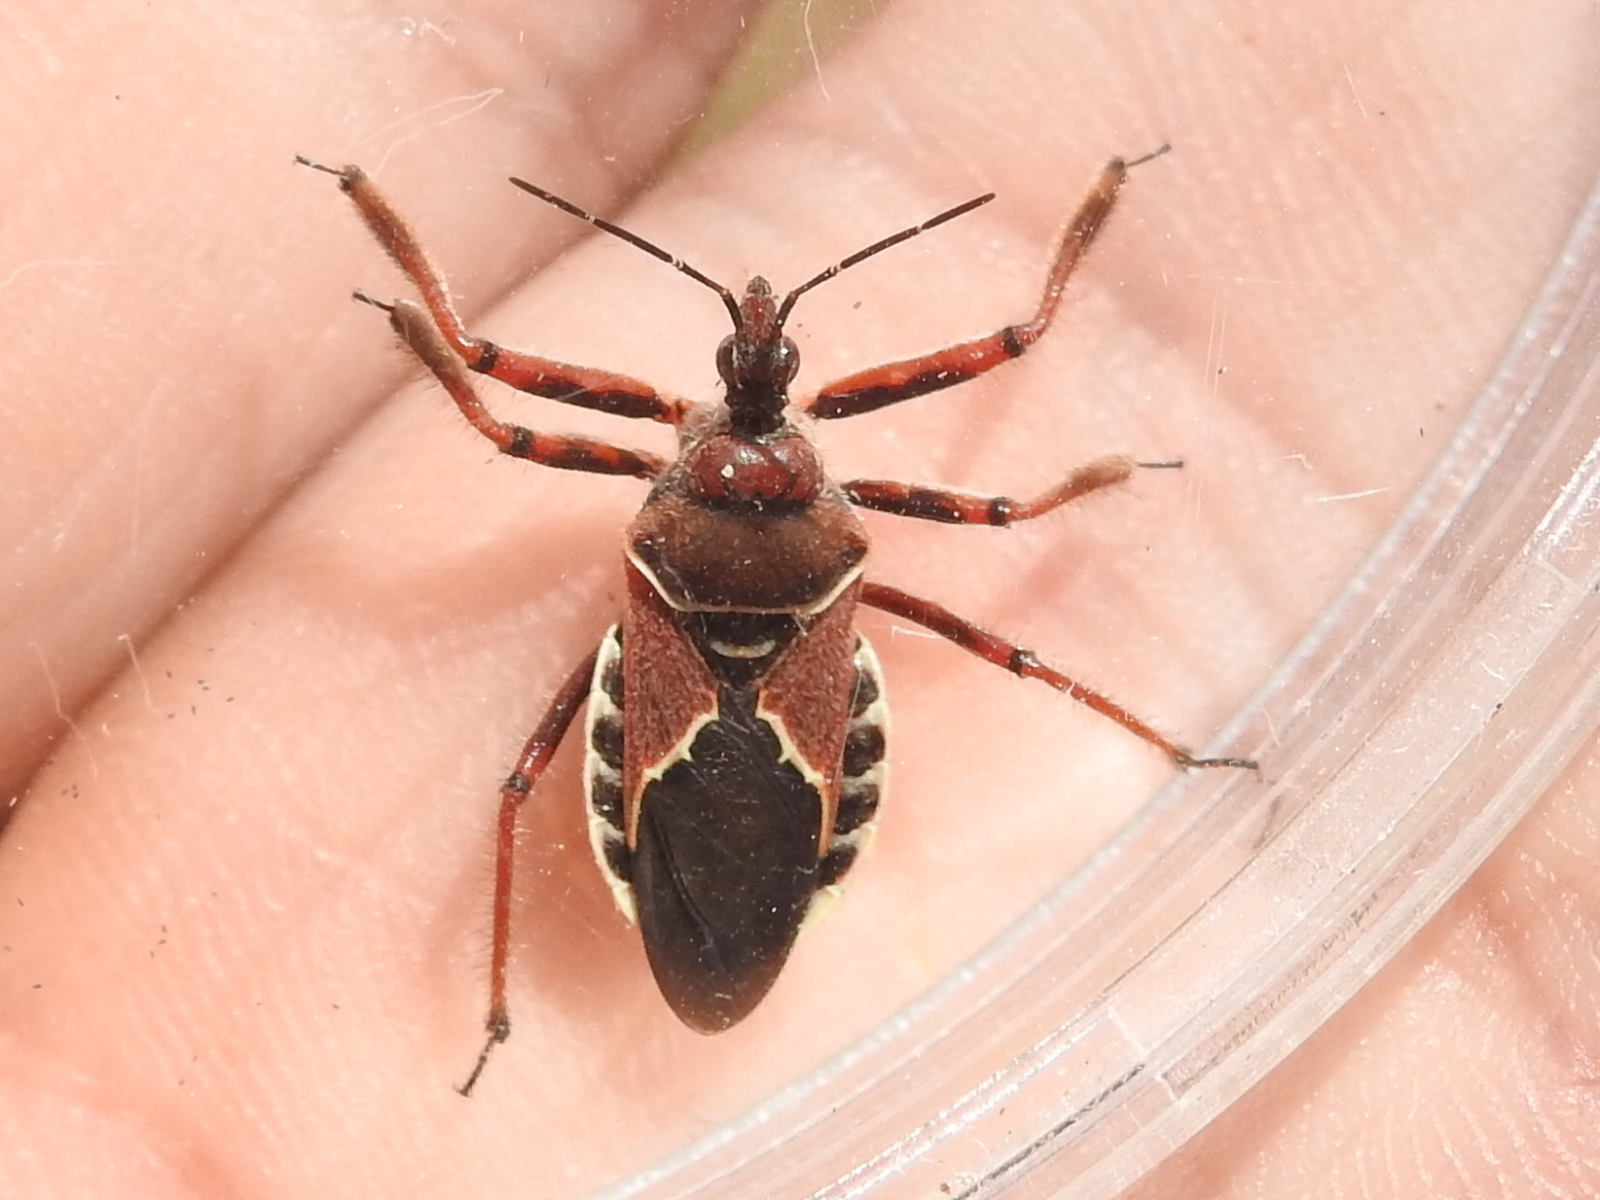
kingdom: Animalia
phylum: Arthropoda
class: Insecta
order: Hemiptera
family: Reduviidae
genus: Apiomerus
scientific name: Apiomerus spissipes
